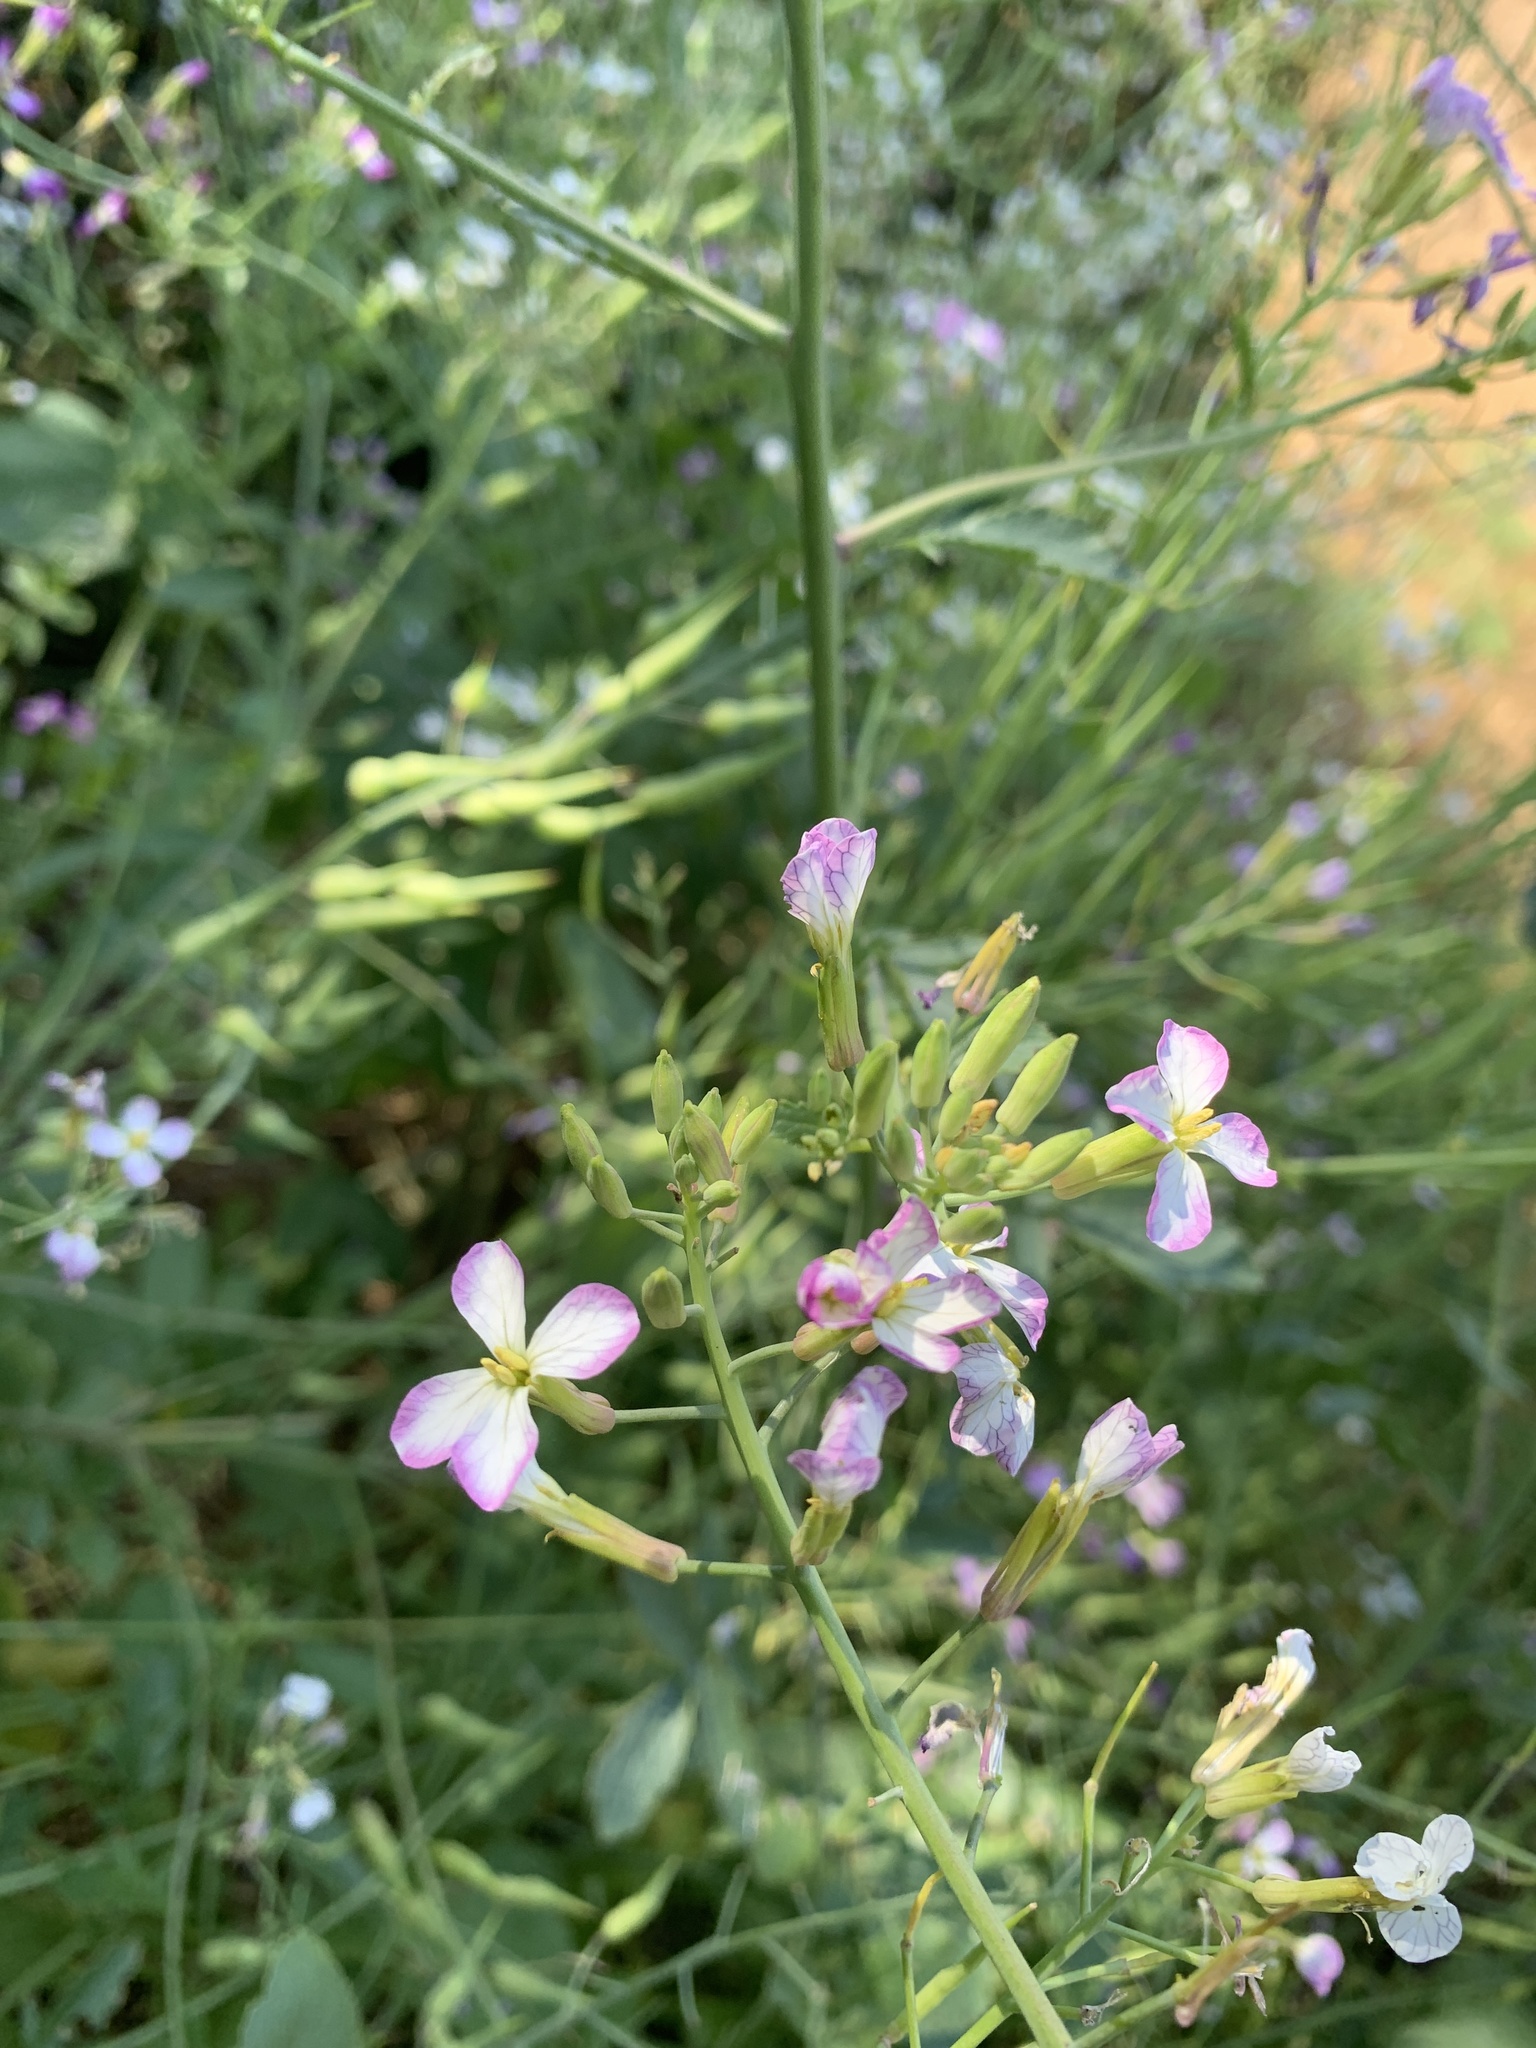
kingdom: Plantae
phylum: Tracheophyta
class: Magnoliopsida
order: Brassicales
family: Brassicaceae
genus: Raphanus
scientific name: Raphanus sativus
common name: Cultivated radish
